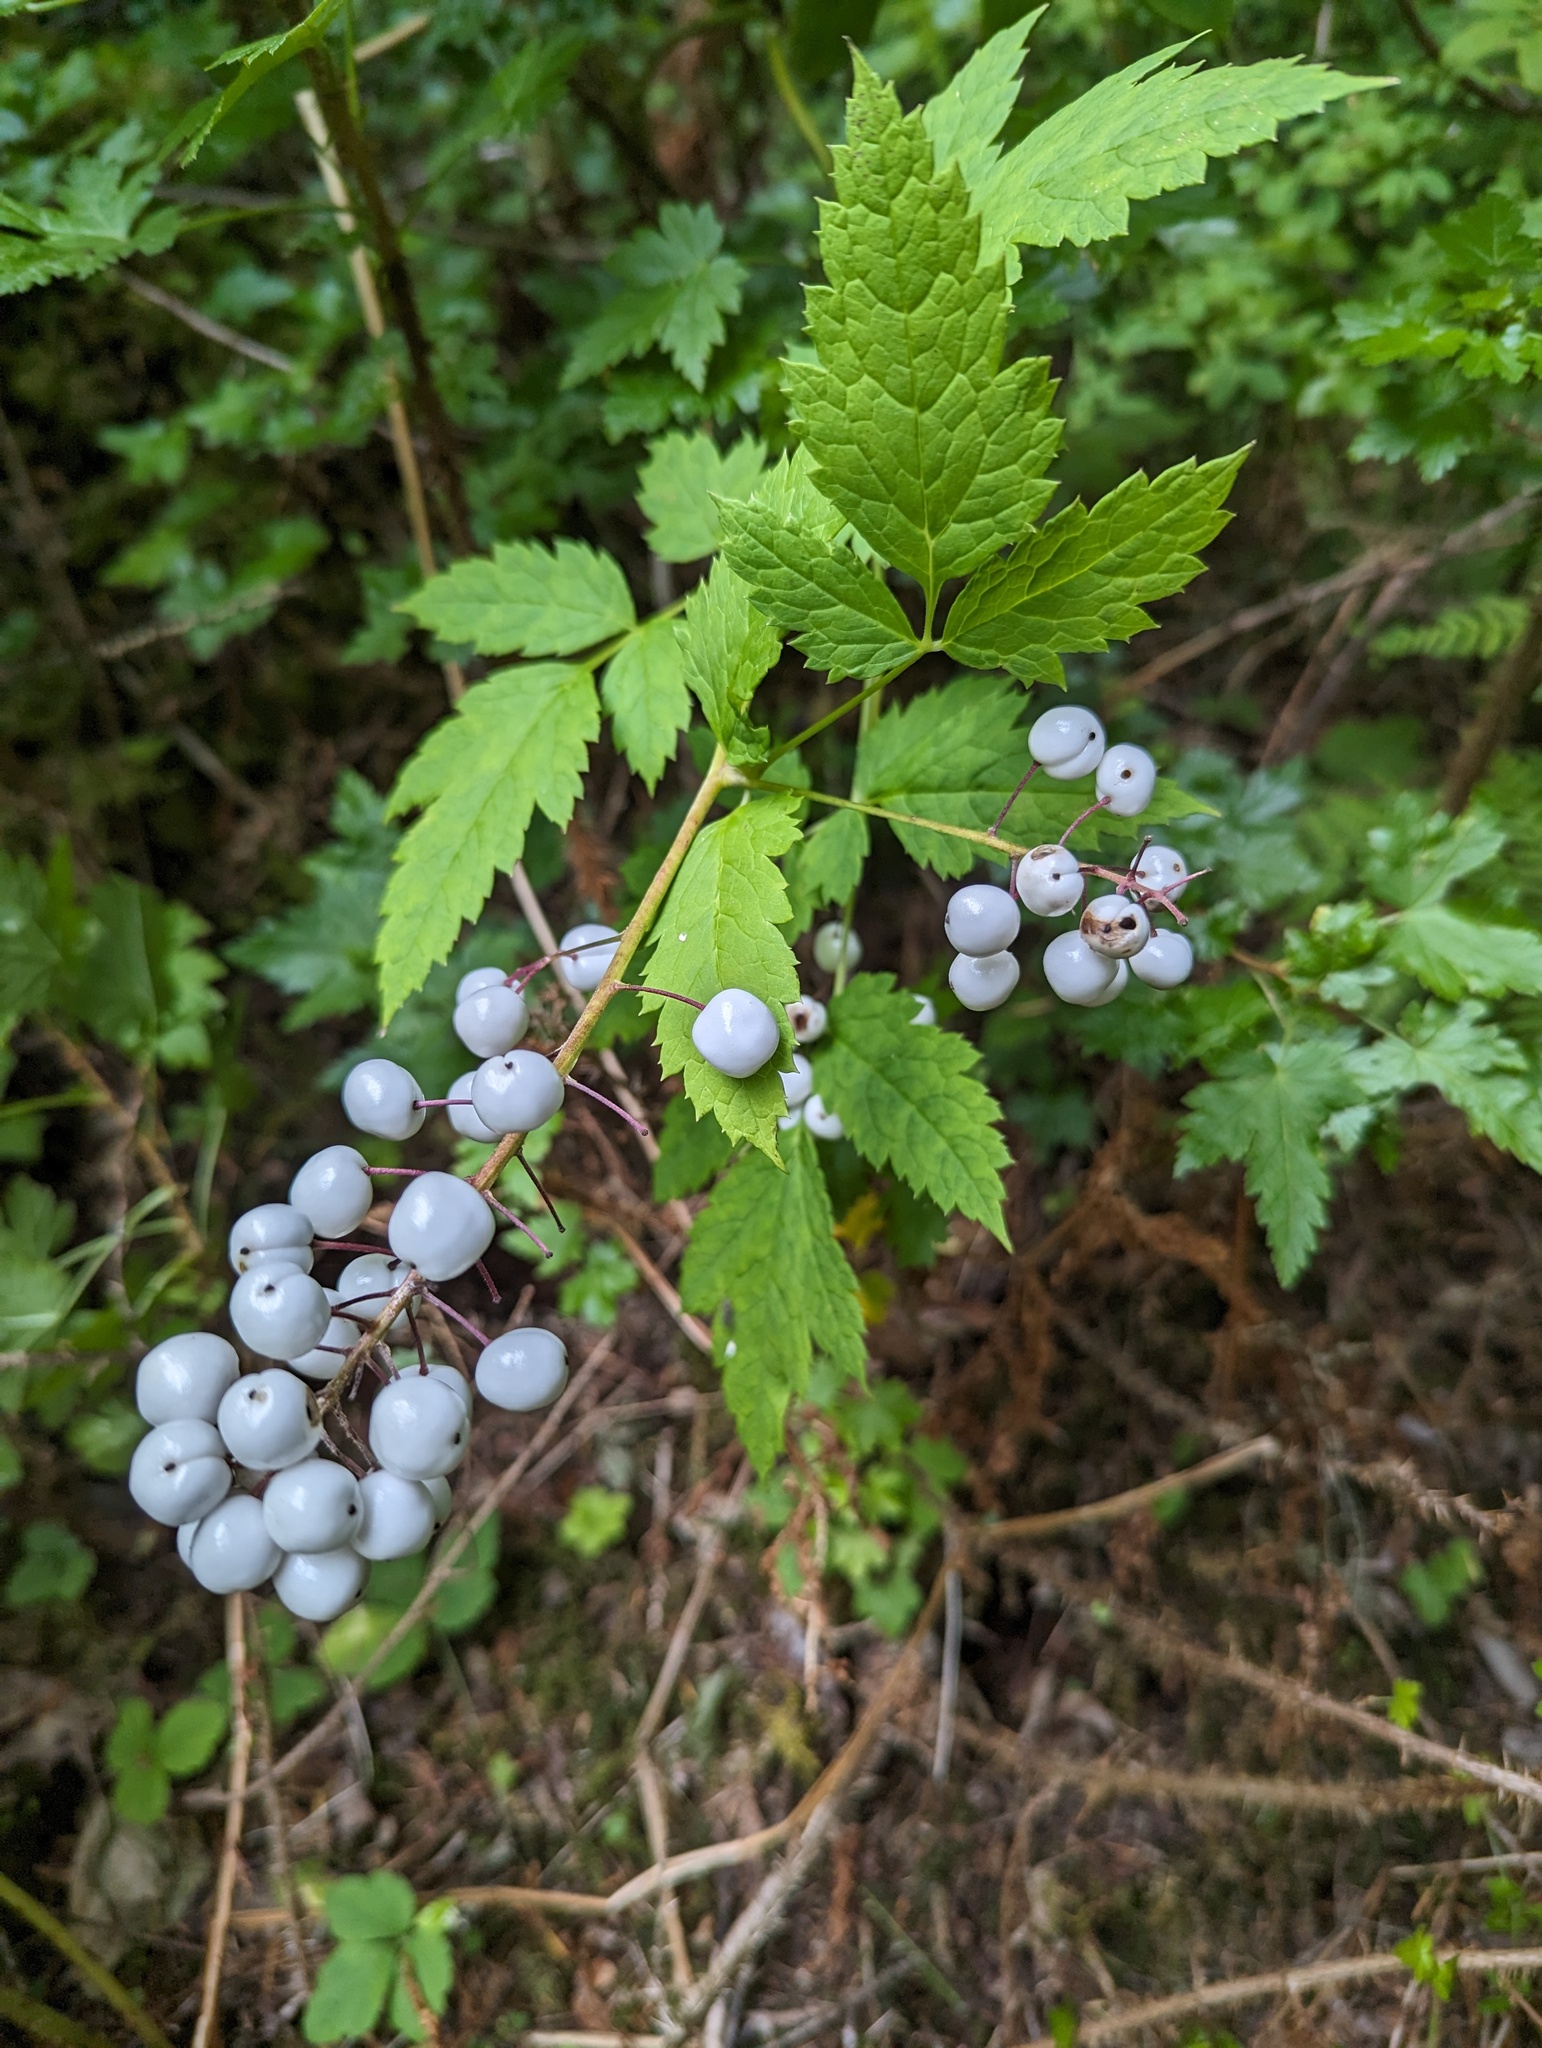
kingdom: Plantae
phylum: Tracheophyta
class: Magnoliopsida
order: Ranunculales
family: Ranunculaceae
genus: Actaea
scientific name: Actaea rubra
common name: Red baneberry
